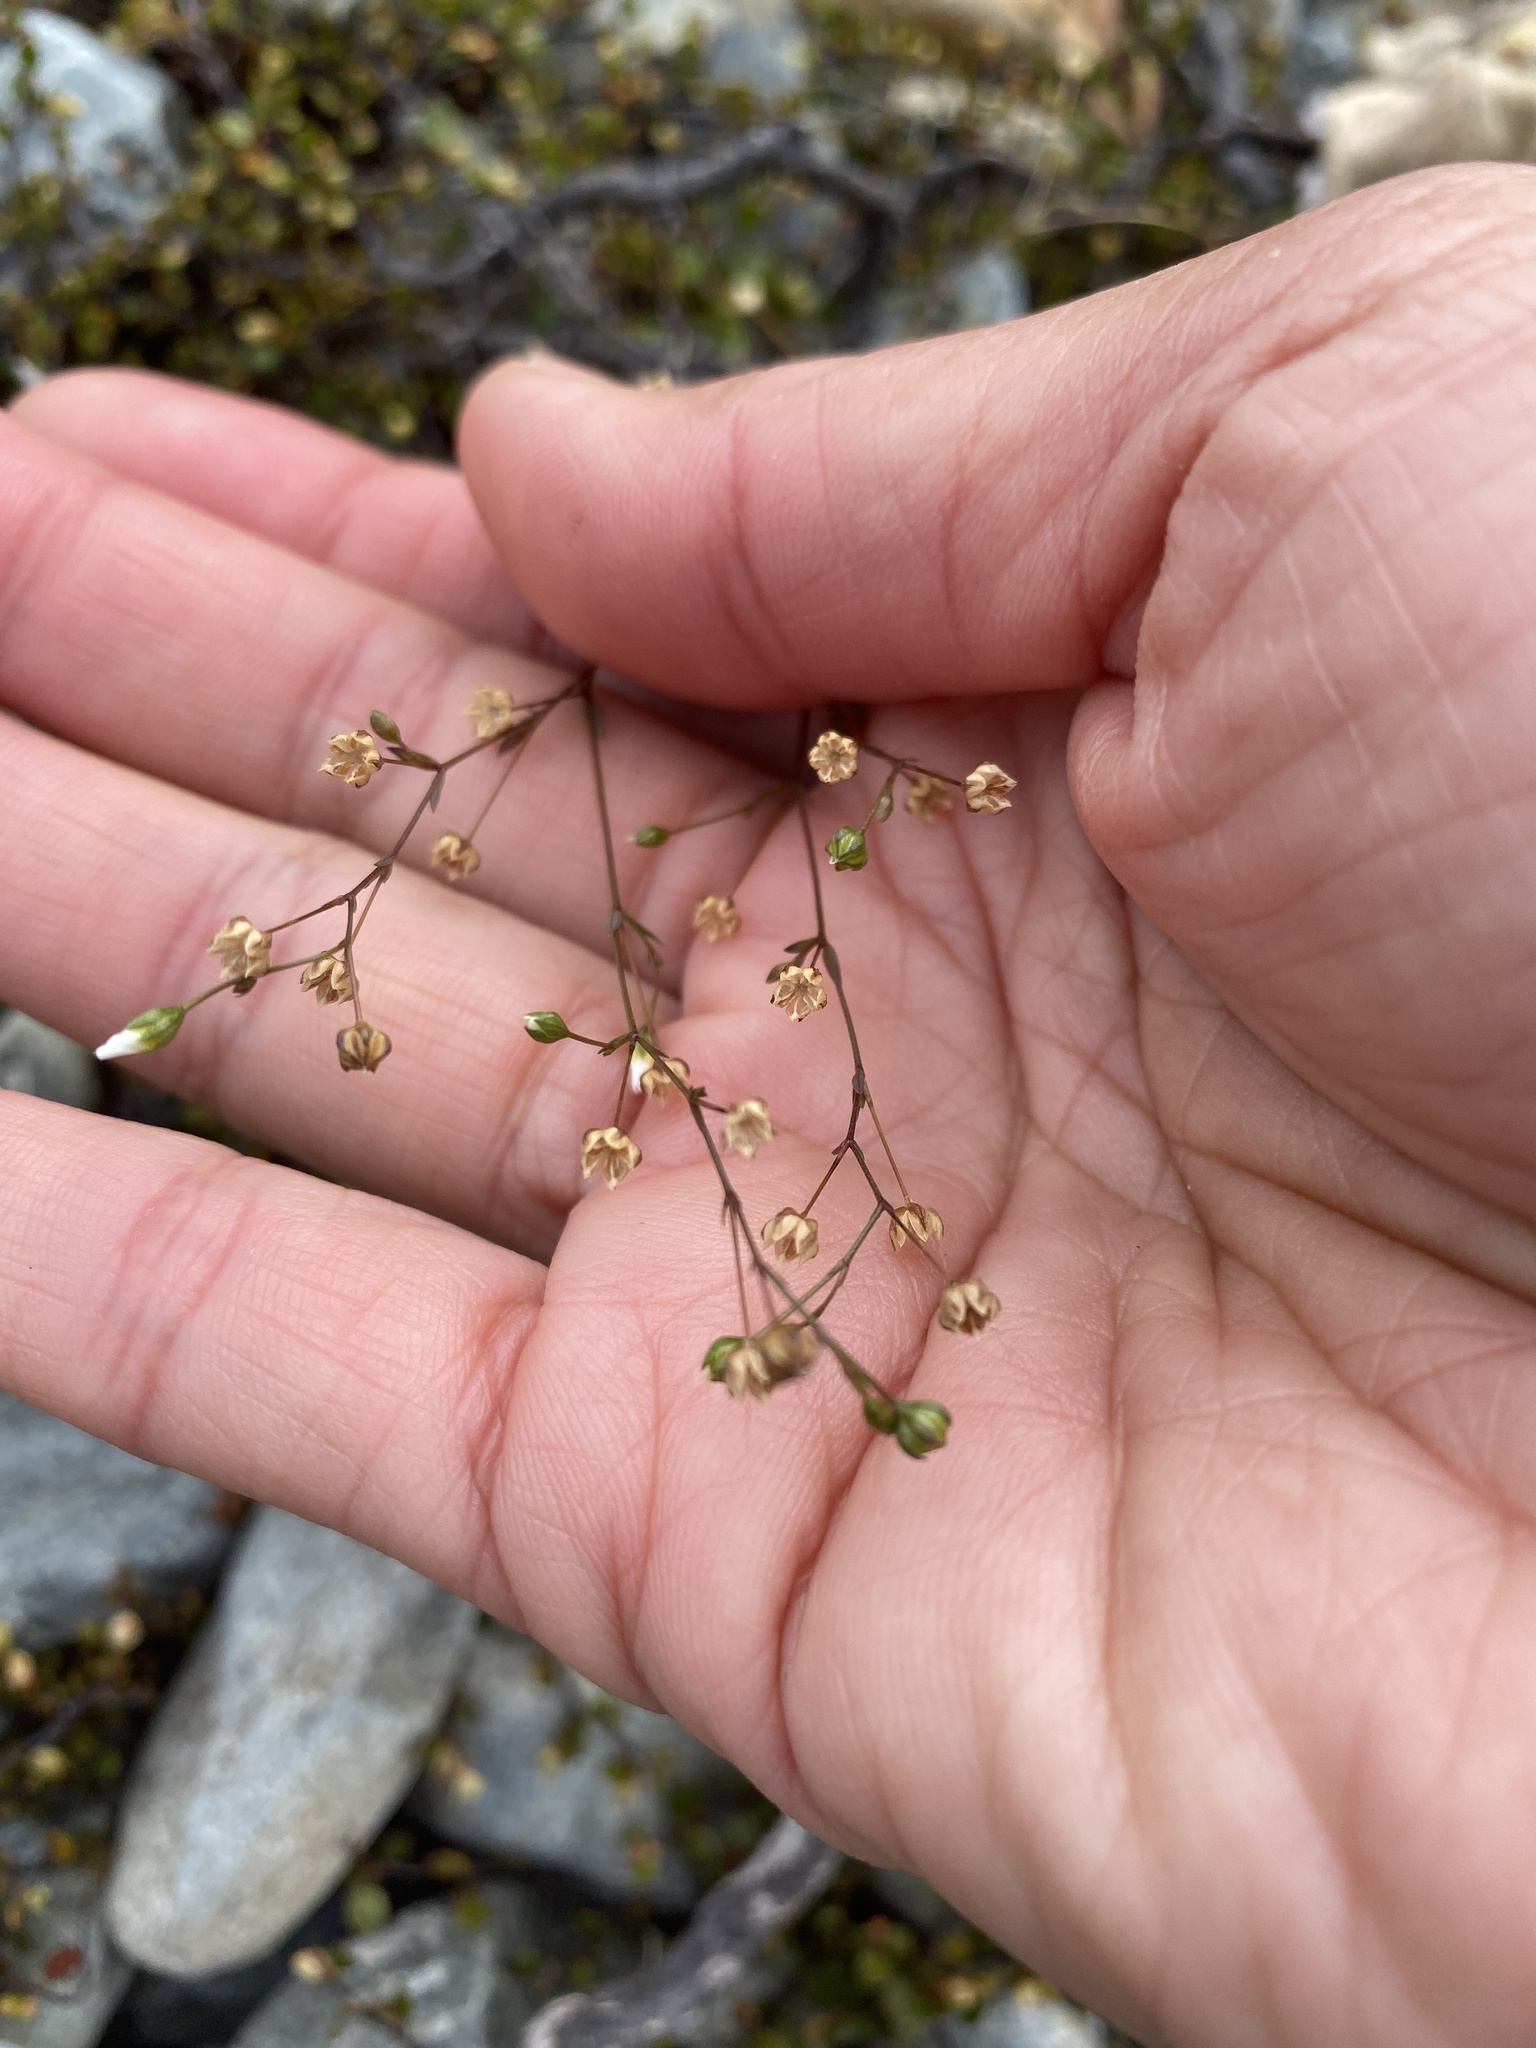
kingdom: Plantae
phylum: Tracheophyta
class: Magnoliopsida
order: Caryophyllales
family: Polygonaceae
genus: Muehlenbeckia
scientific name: Muehlenbeckia axillaris
